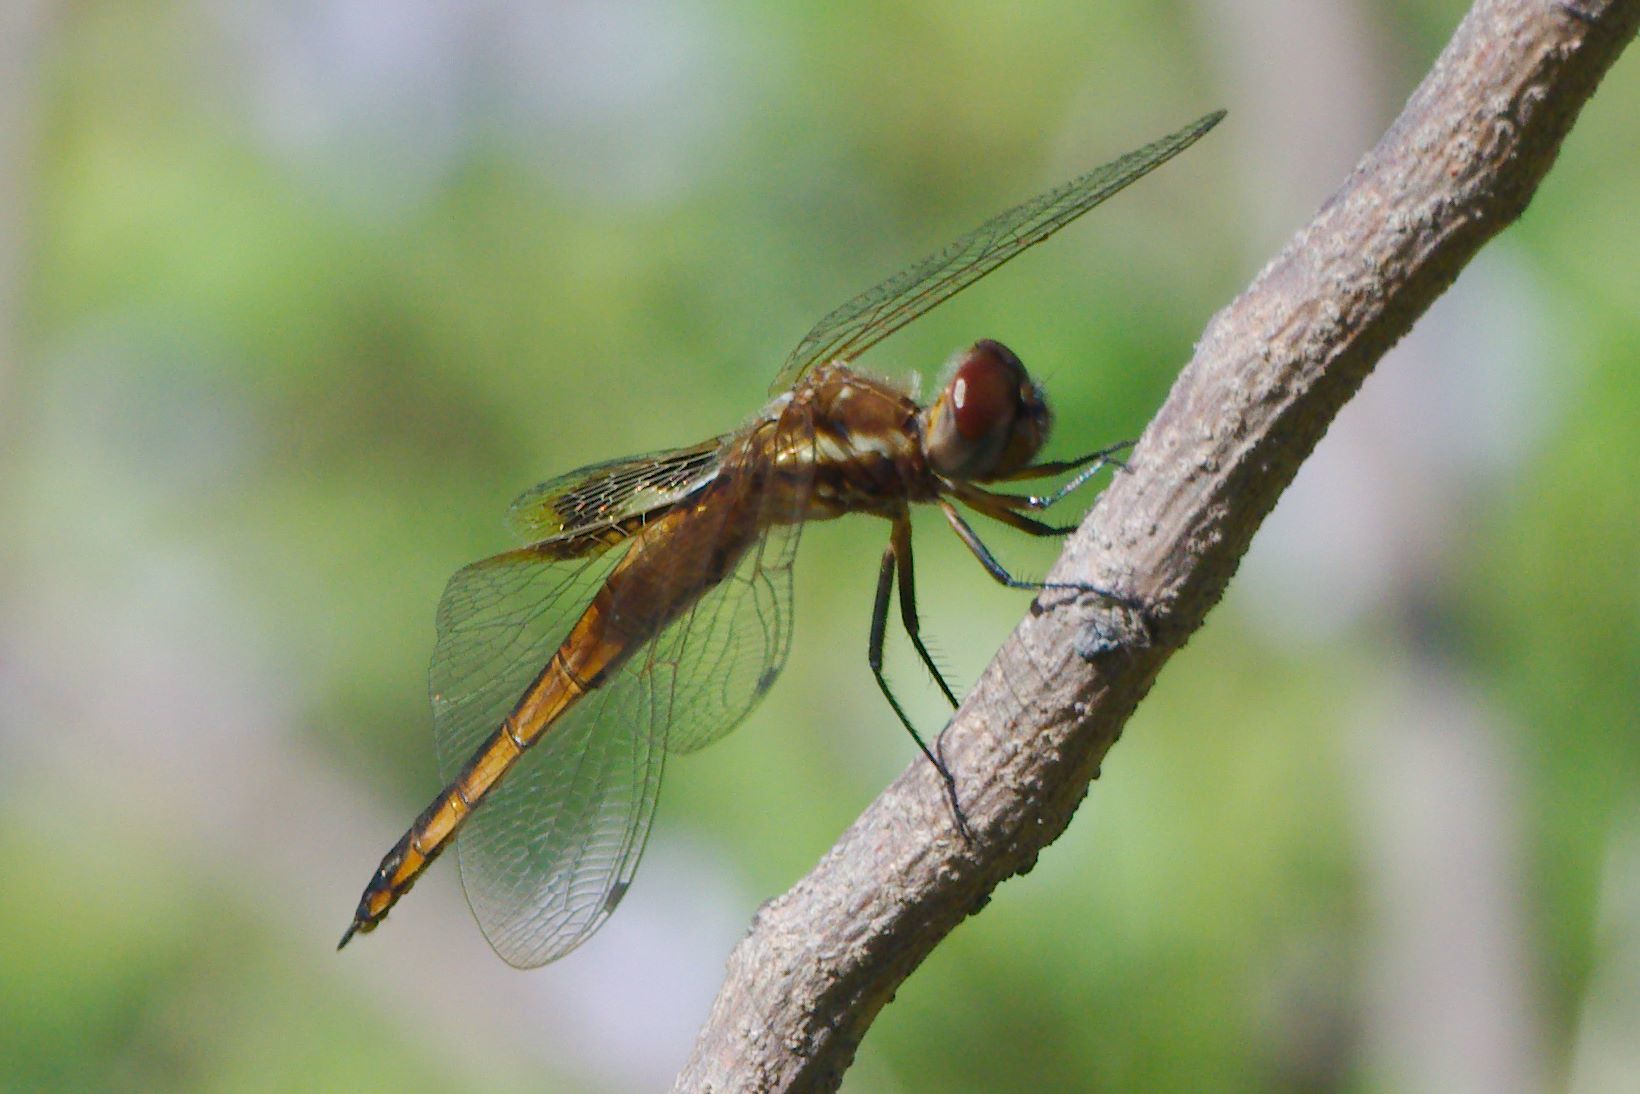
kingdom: Animalia
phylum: Arthropoda
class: Insecta
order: Odonata
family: Libellulidae
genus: Miathyria
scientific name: Miathyria marcella
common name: Hyacinth glider
